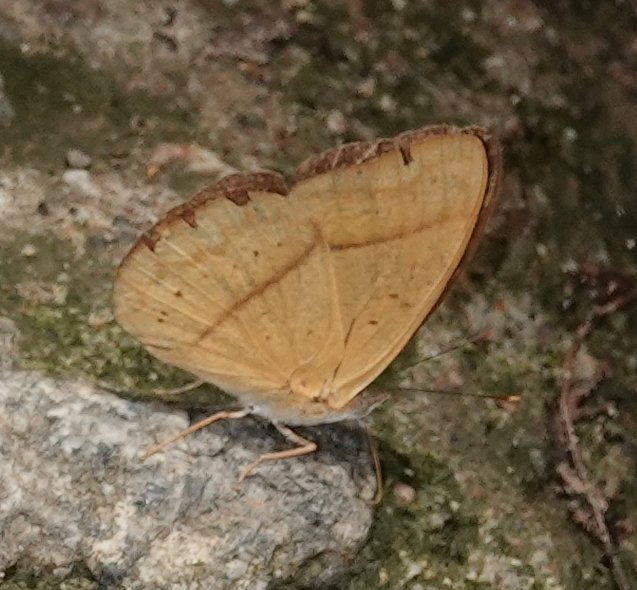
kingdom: Animalia
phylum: Arthropoda
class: Insecta
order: Lepidoptera
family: Nymphalidae
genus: Peria
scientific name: Peria lamis
